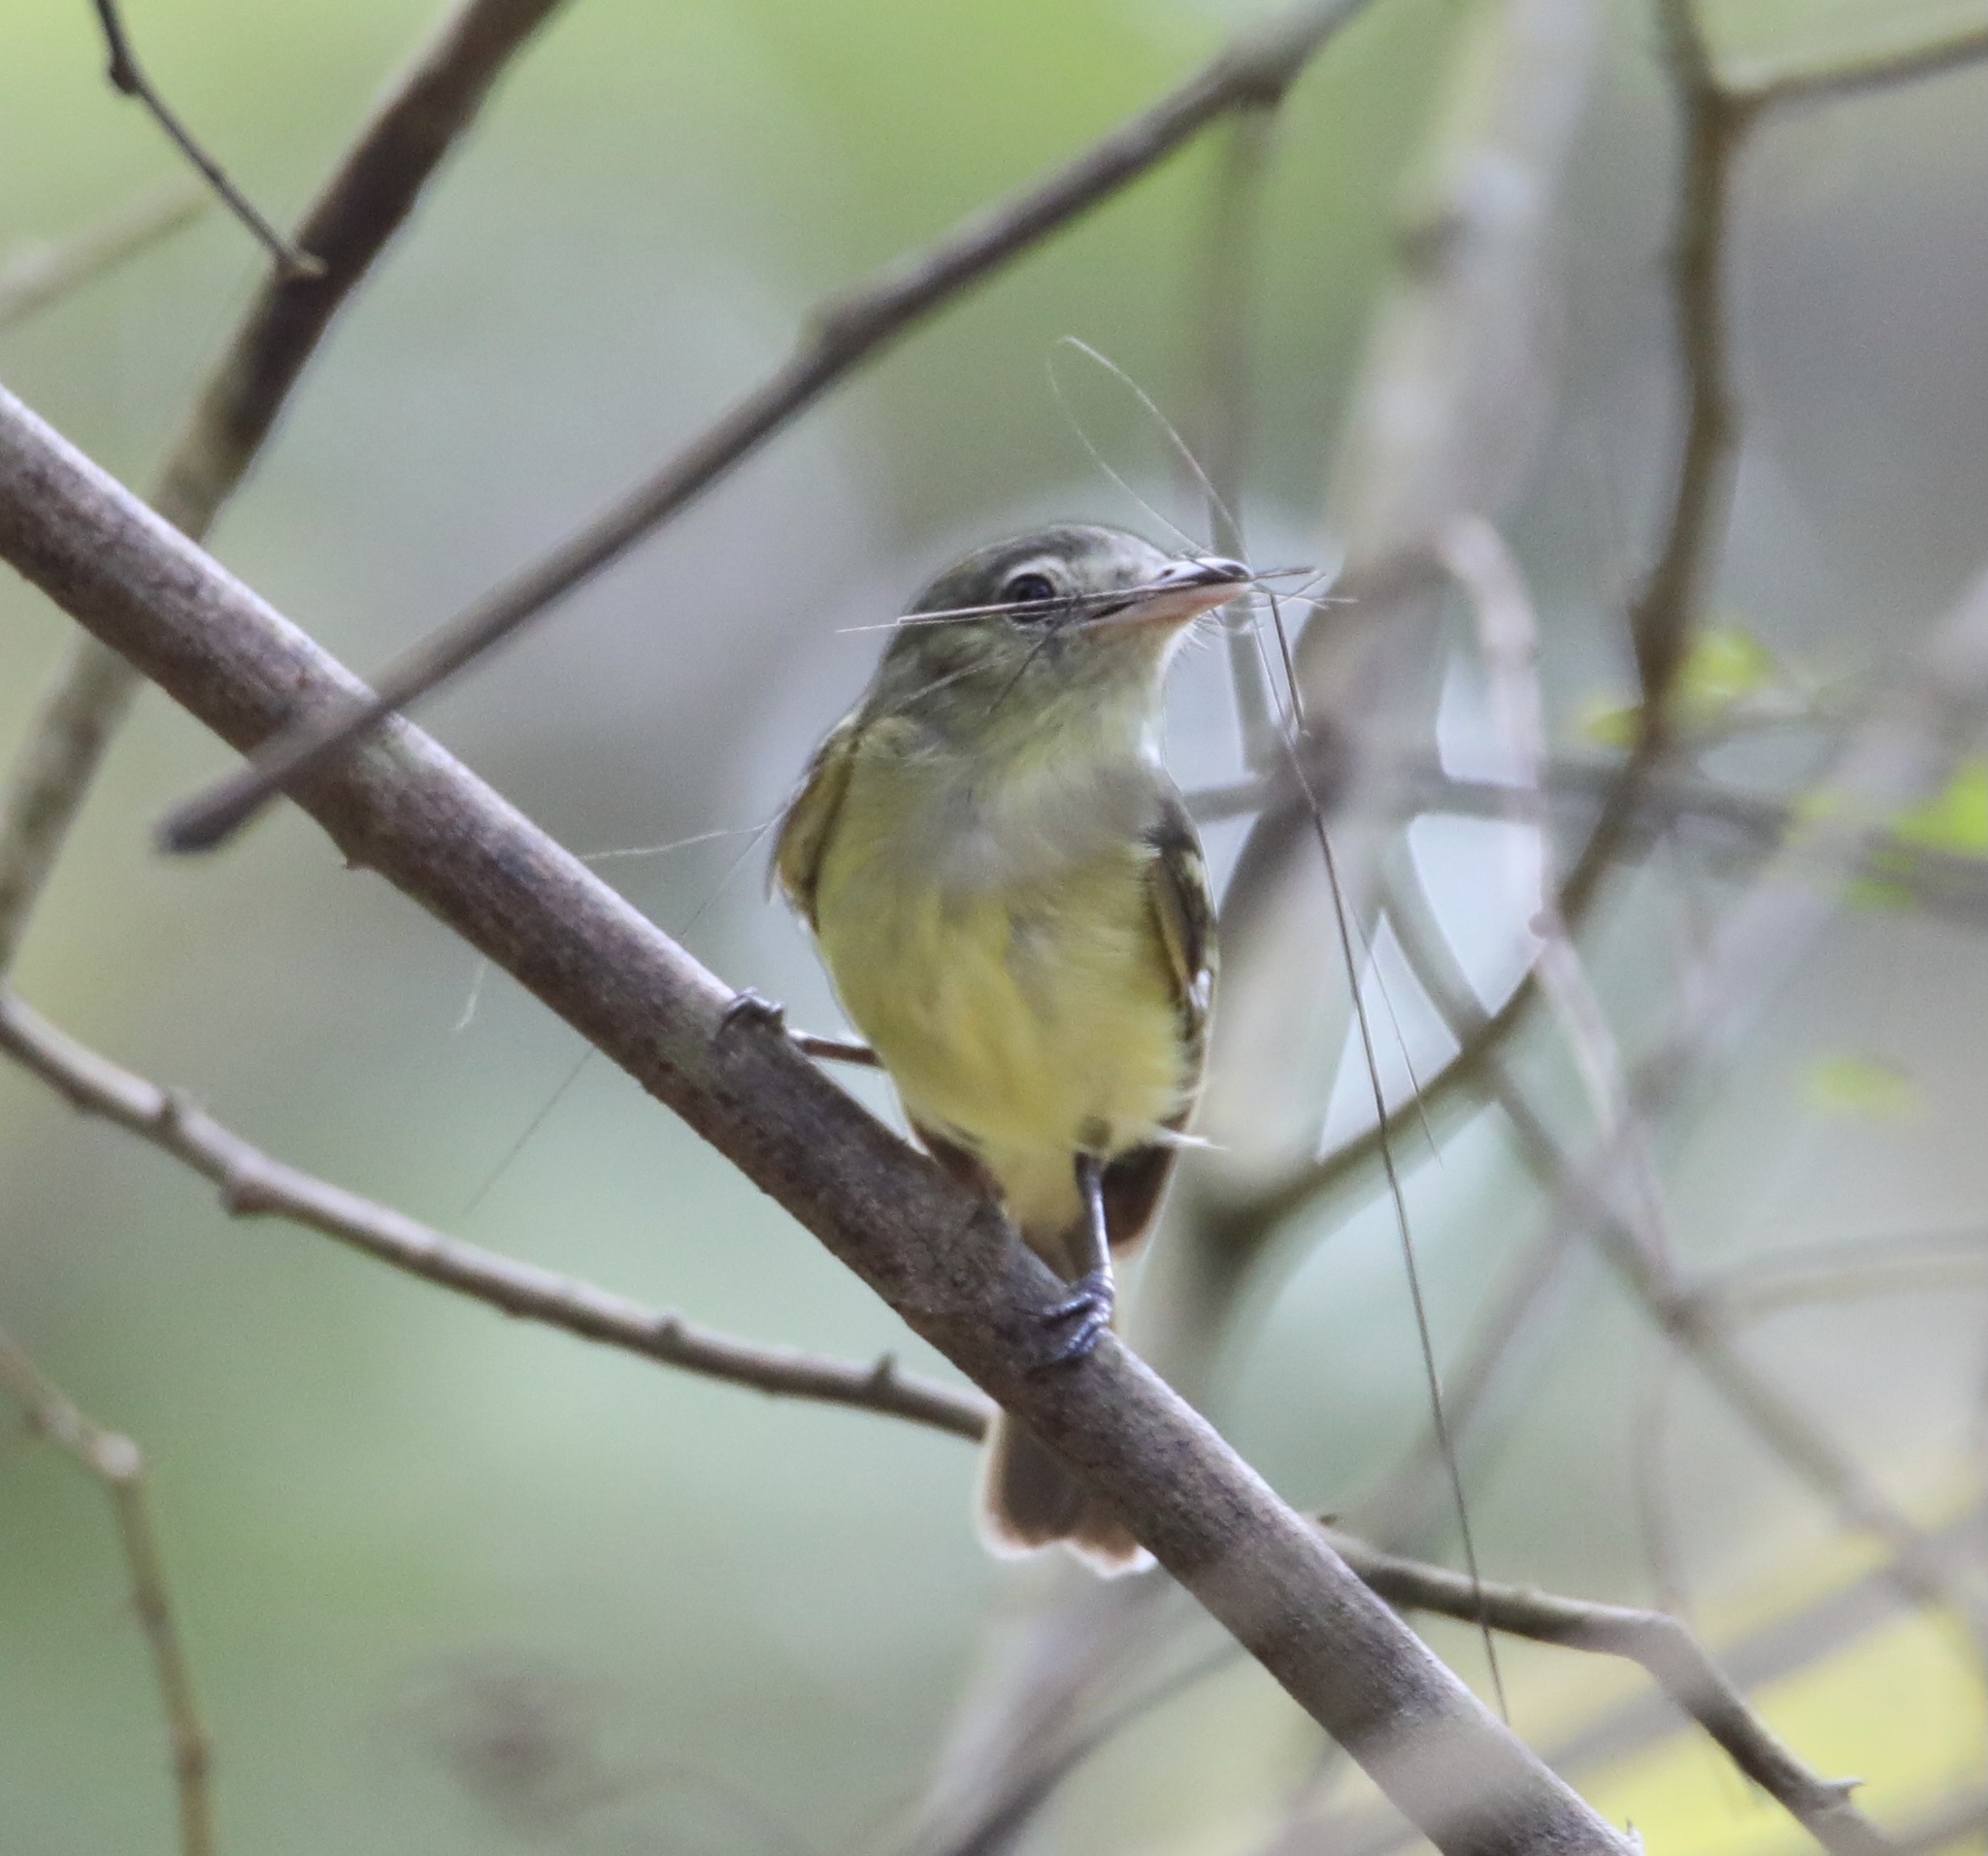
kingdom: Animalia
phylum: Chordata
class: Aves
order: Passeriformes
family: Tyrannidae
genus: Tolmomyias
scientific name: Tolmomyias sulphurescens
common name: Yellow-olive flycatcher
